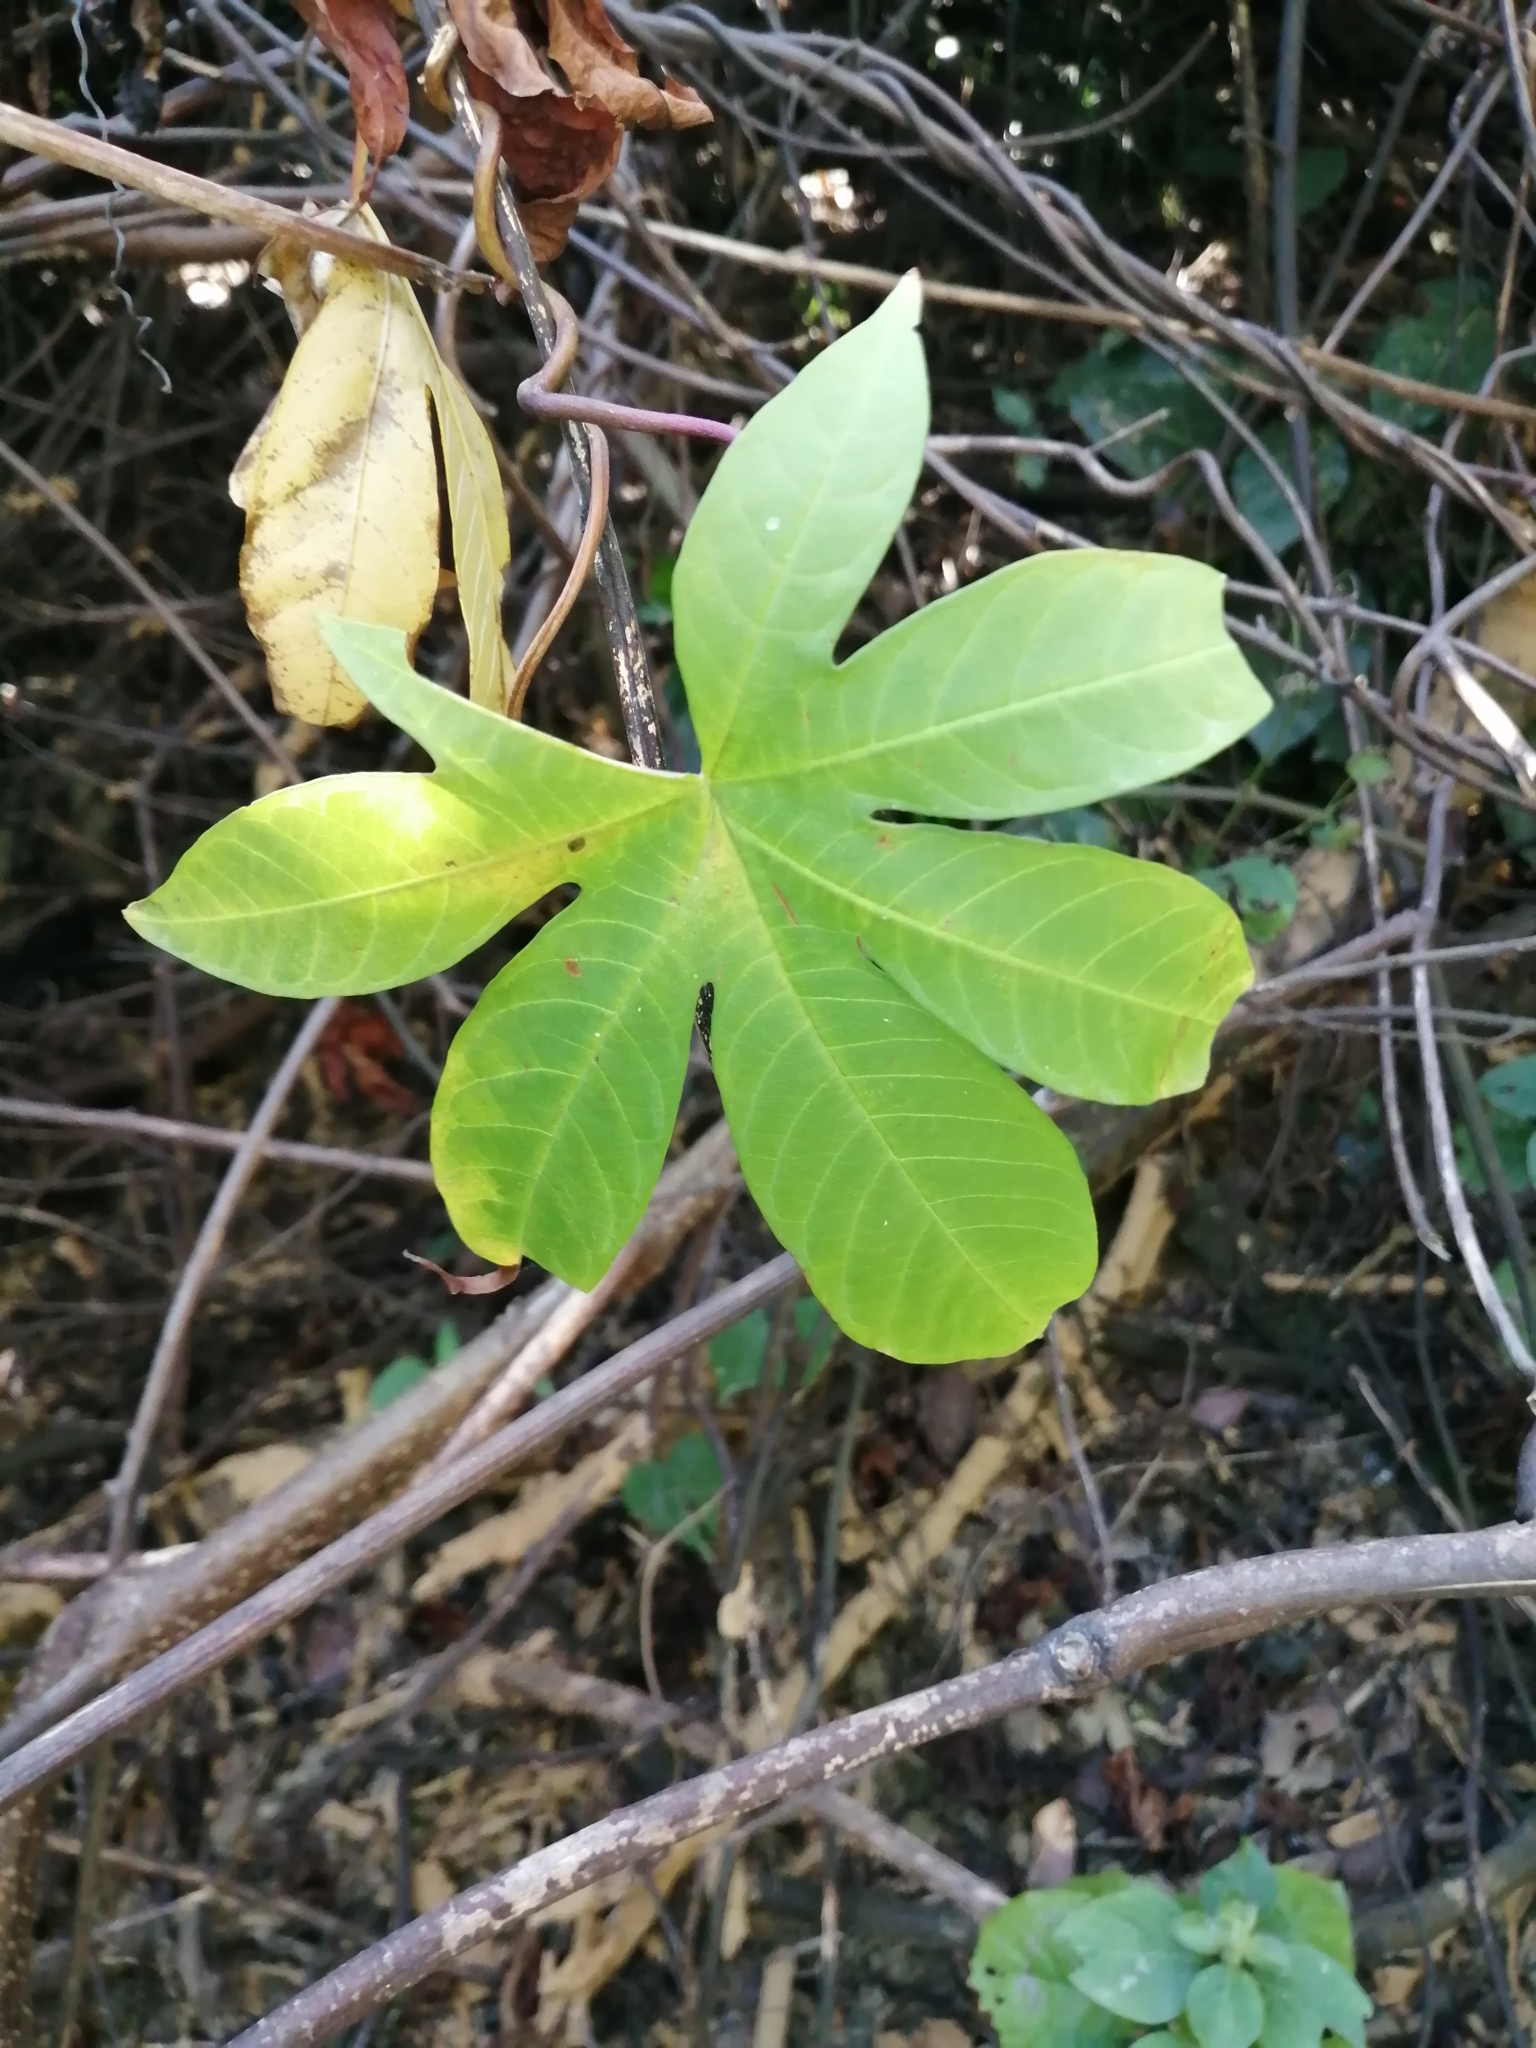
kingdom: Plantae
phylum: Tracheophyta
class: Magnoliopsida
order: Solanales
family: Convolvulaceae
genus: Distimake
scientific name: Distimake tuberosus
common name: Spanish arborvine
